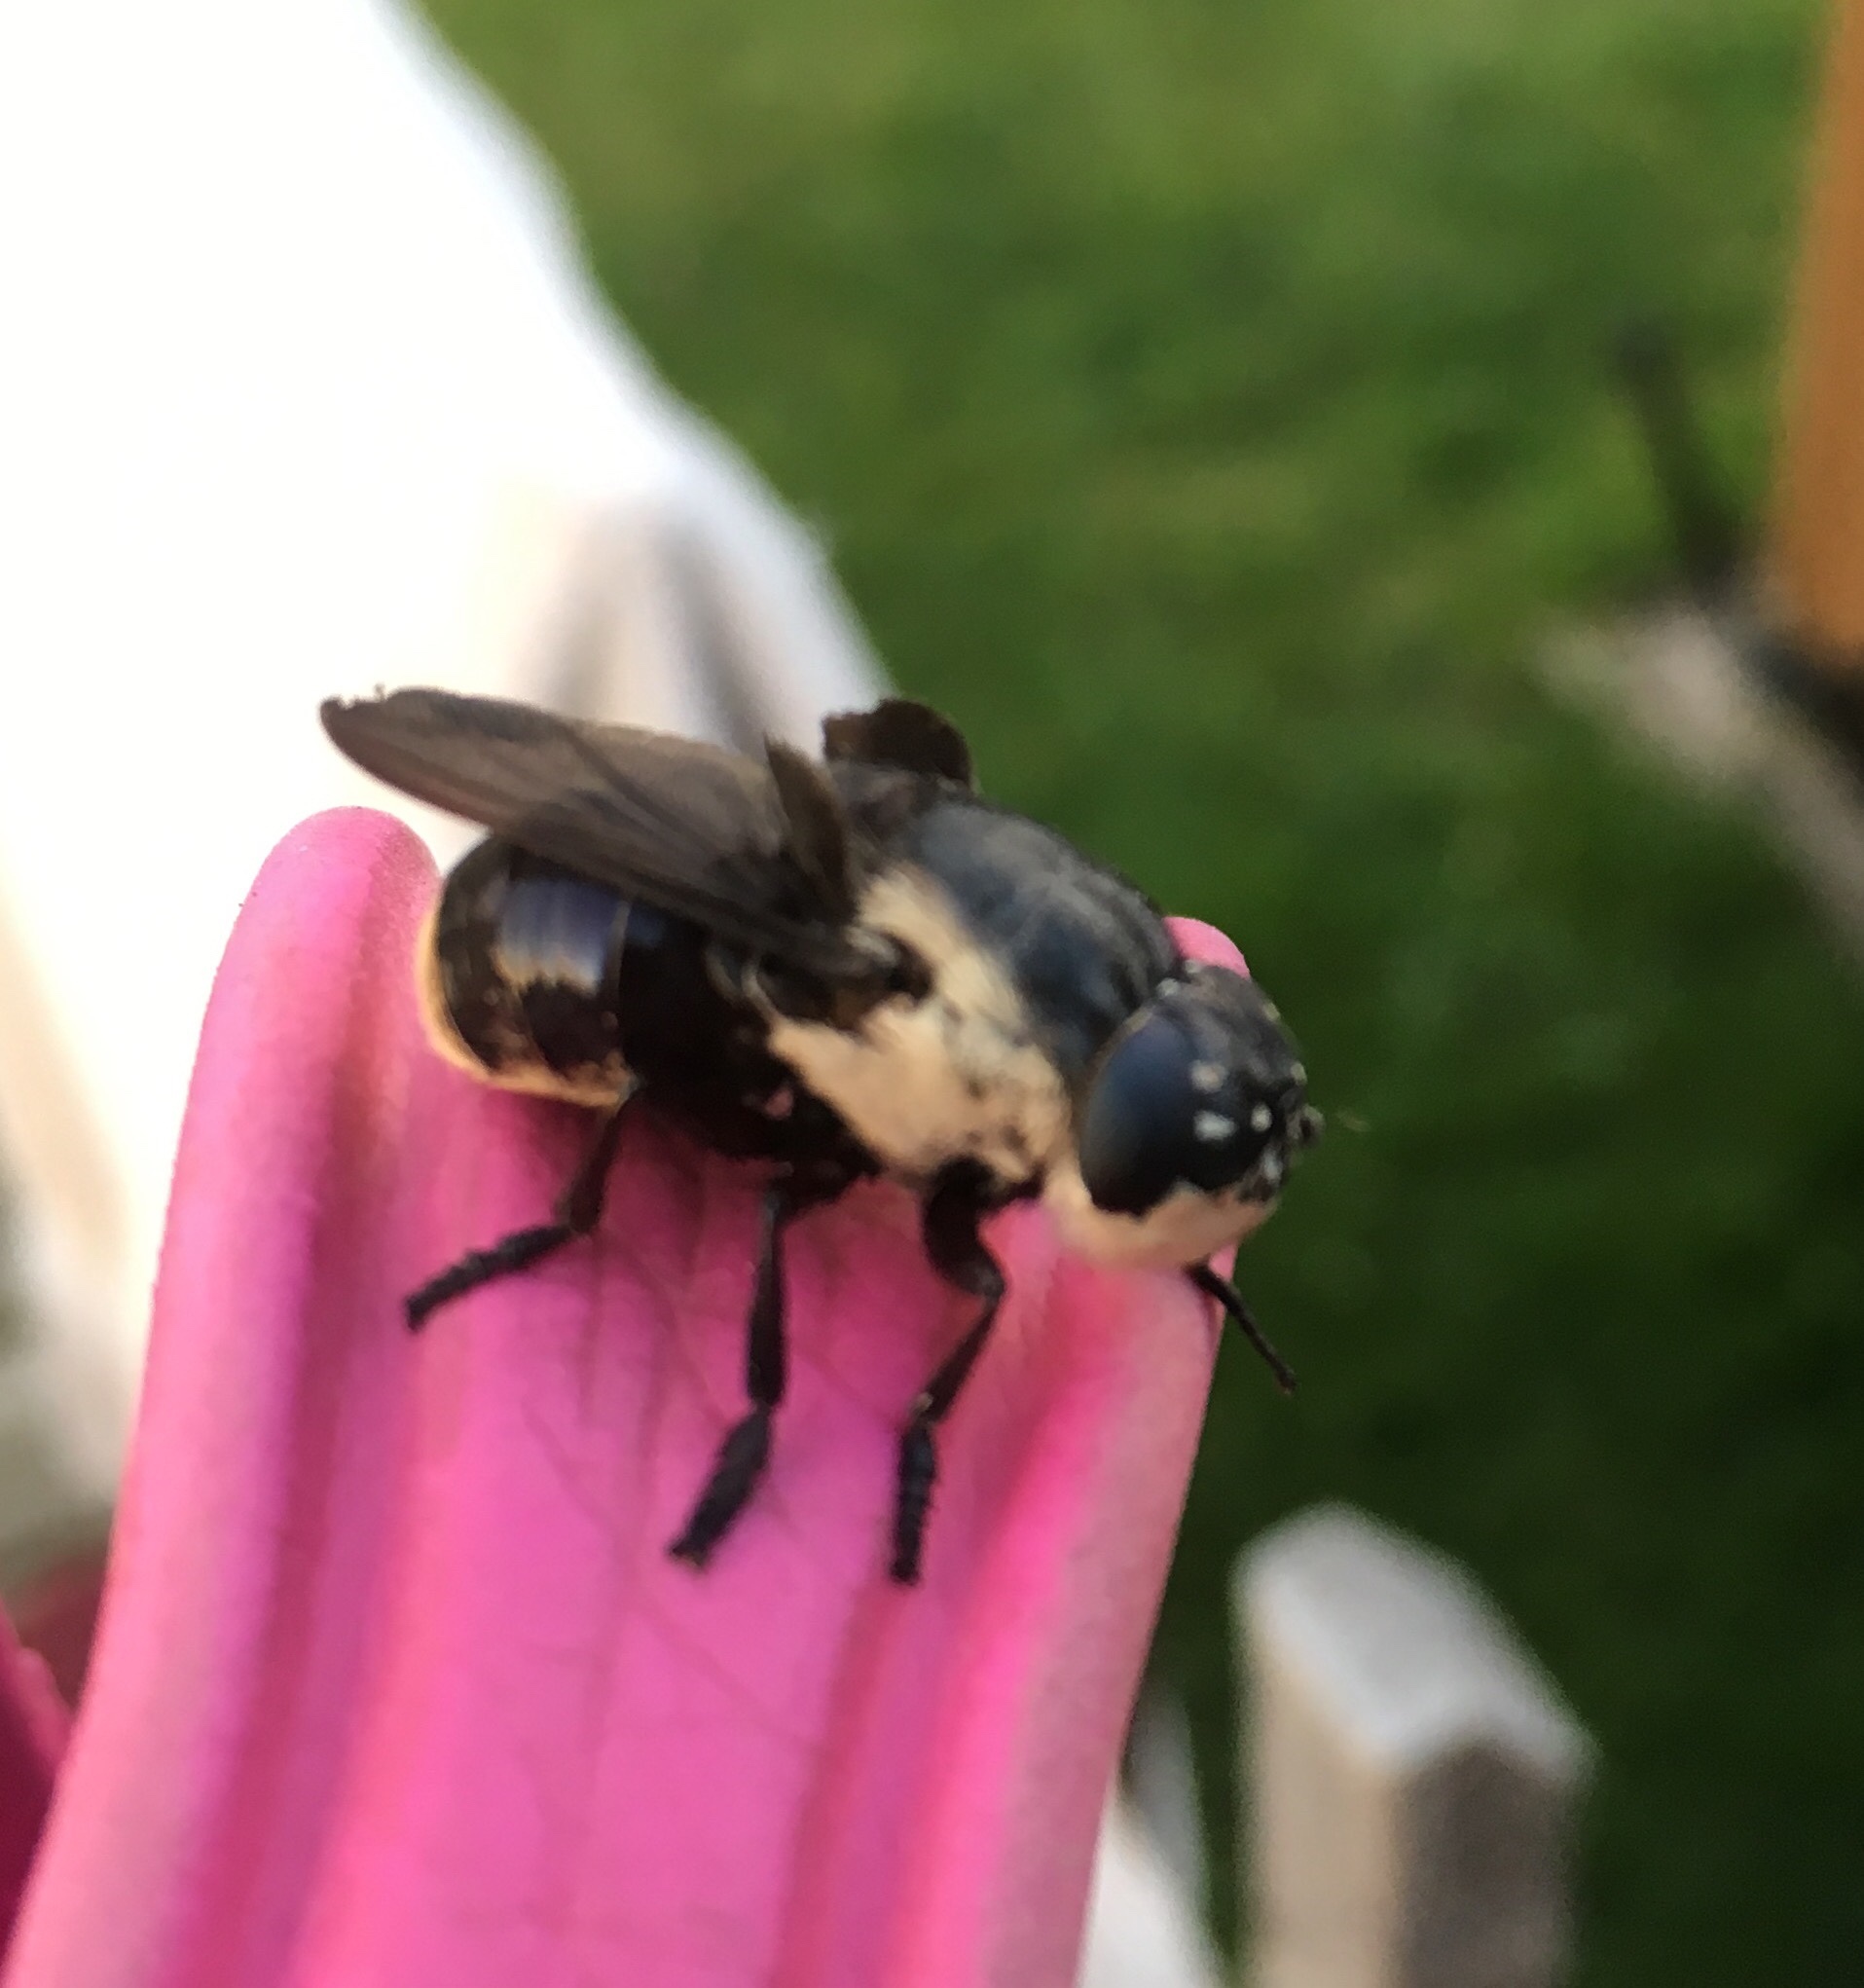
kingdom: Animalia
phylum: Arthropoda
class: Insecta
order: Diptera
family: Oestridae
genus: Cuterebra
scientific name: Cuterebra fontinella
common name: Mouse bot fly
